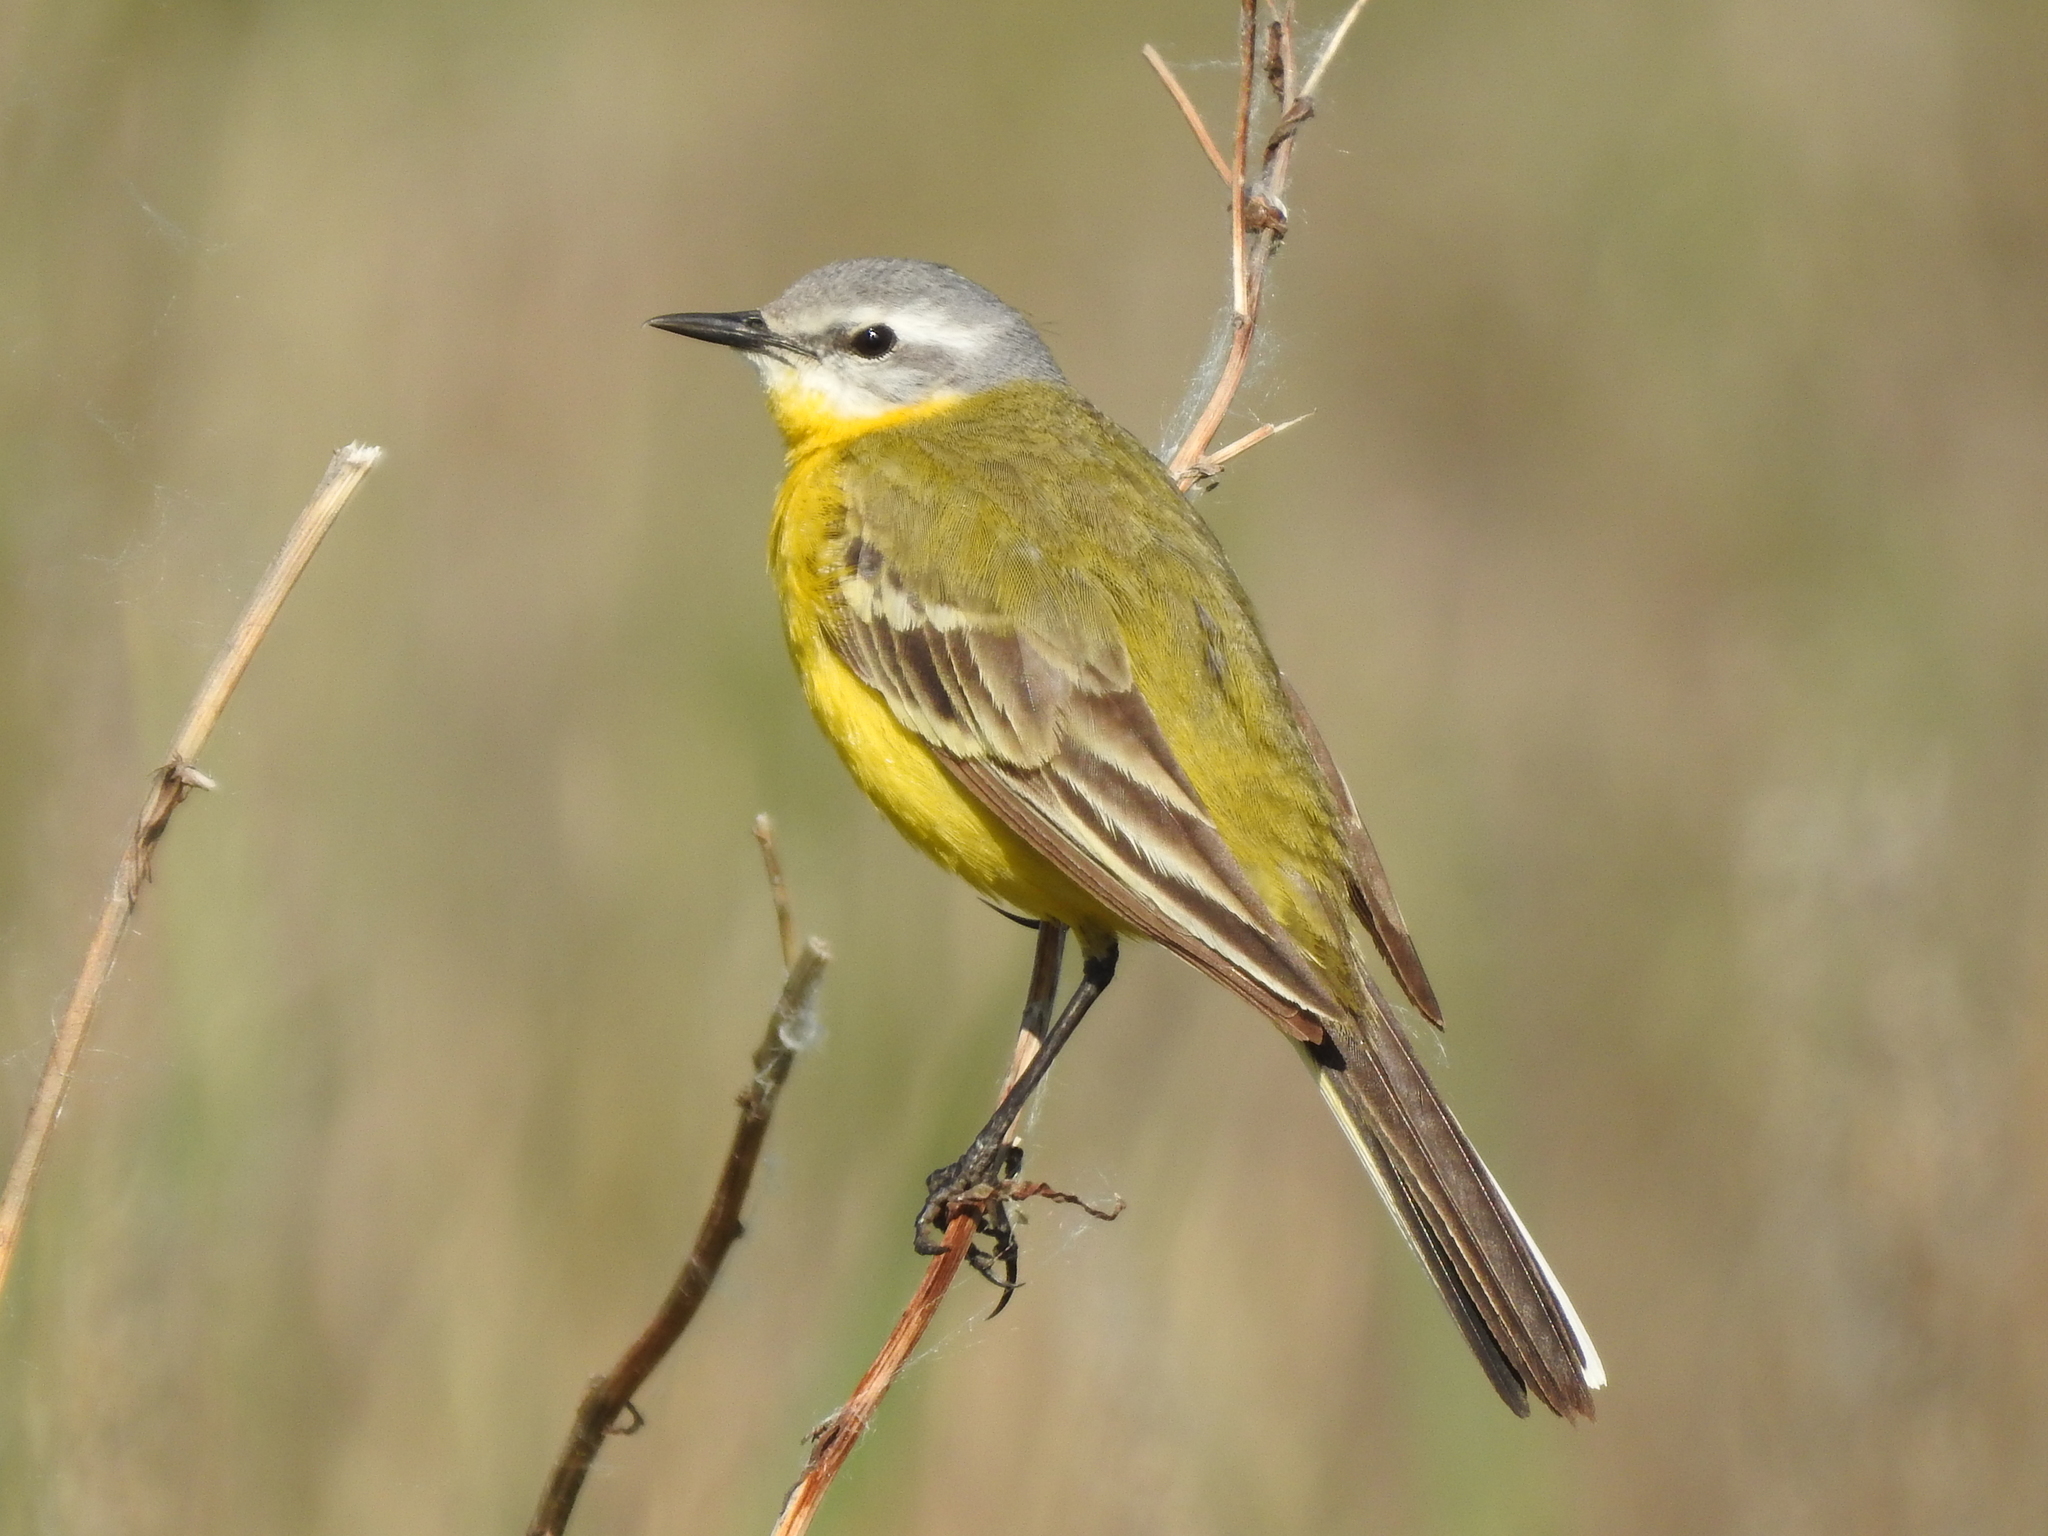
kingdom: Animalia
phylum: Chordata
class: Aves
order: Passeriformes
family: Motacillidae
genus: Motacilla
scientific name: Motacilla flava
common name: Western yellow wagtail
